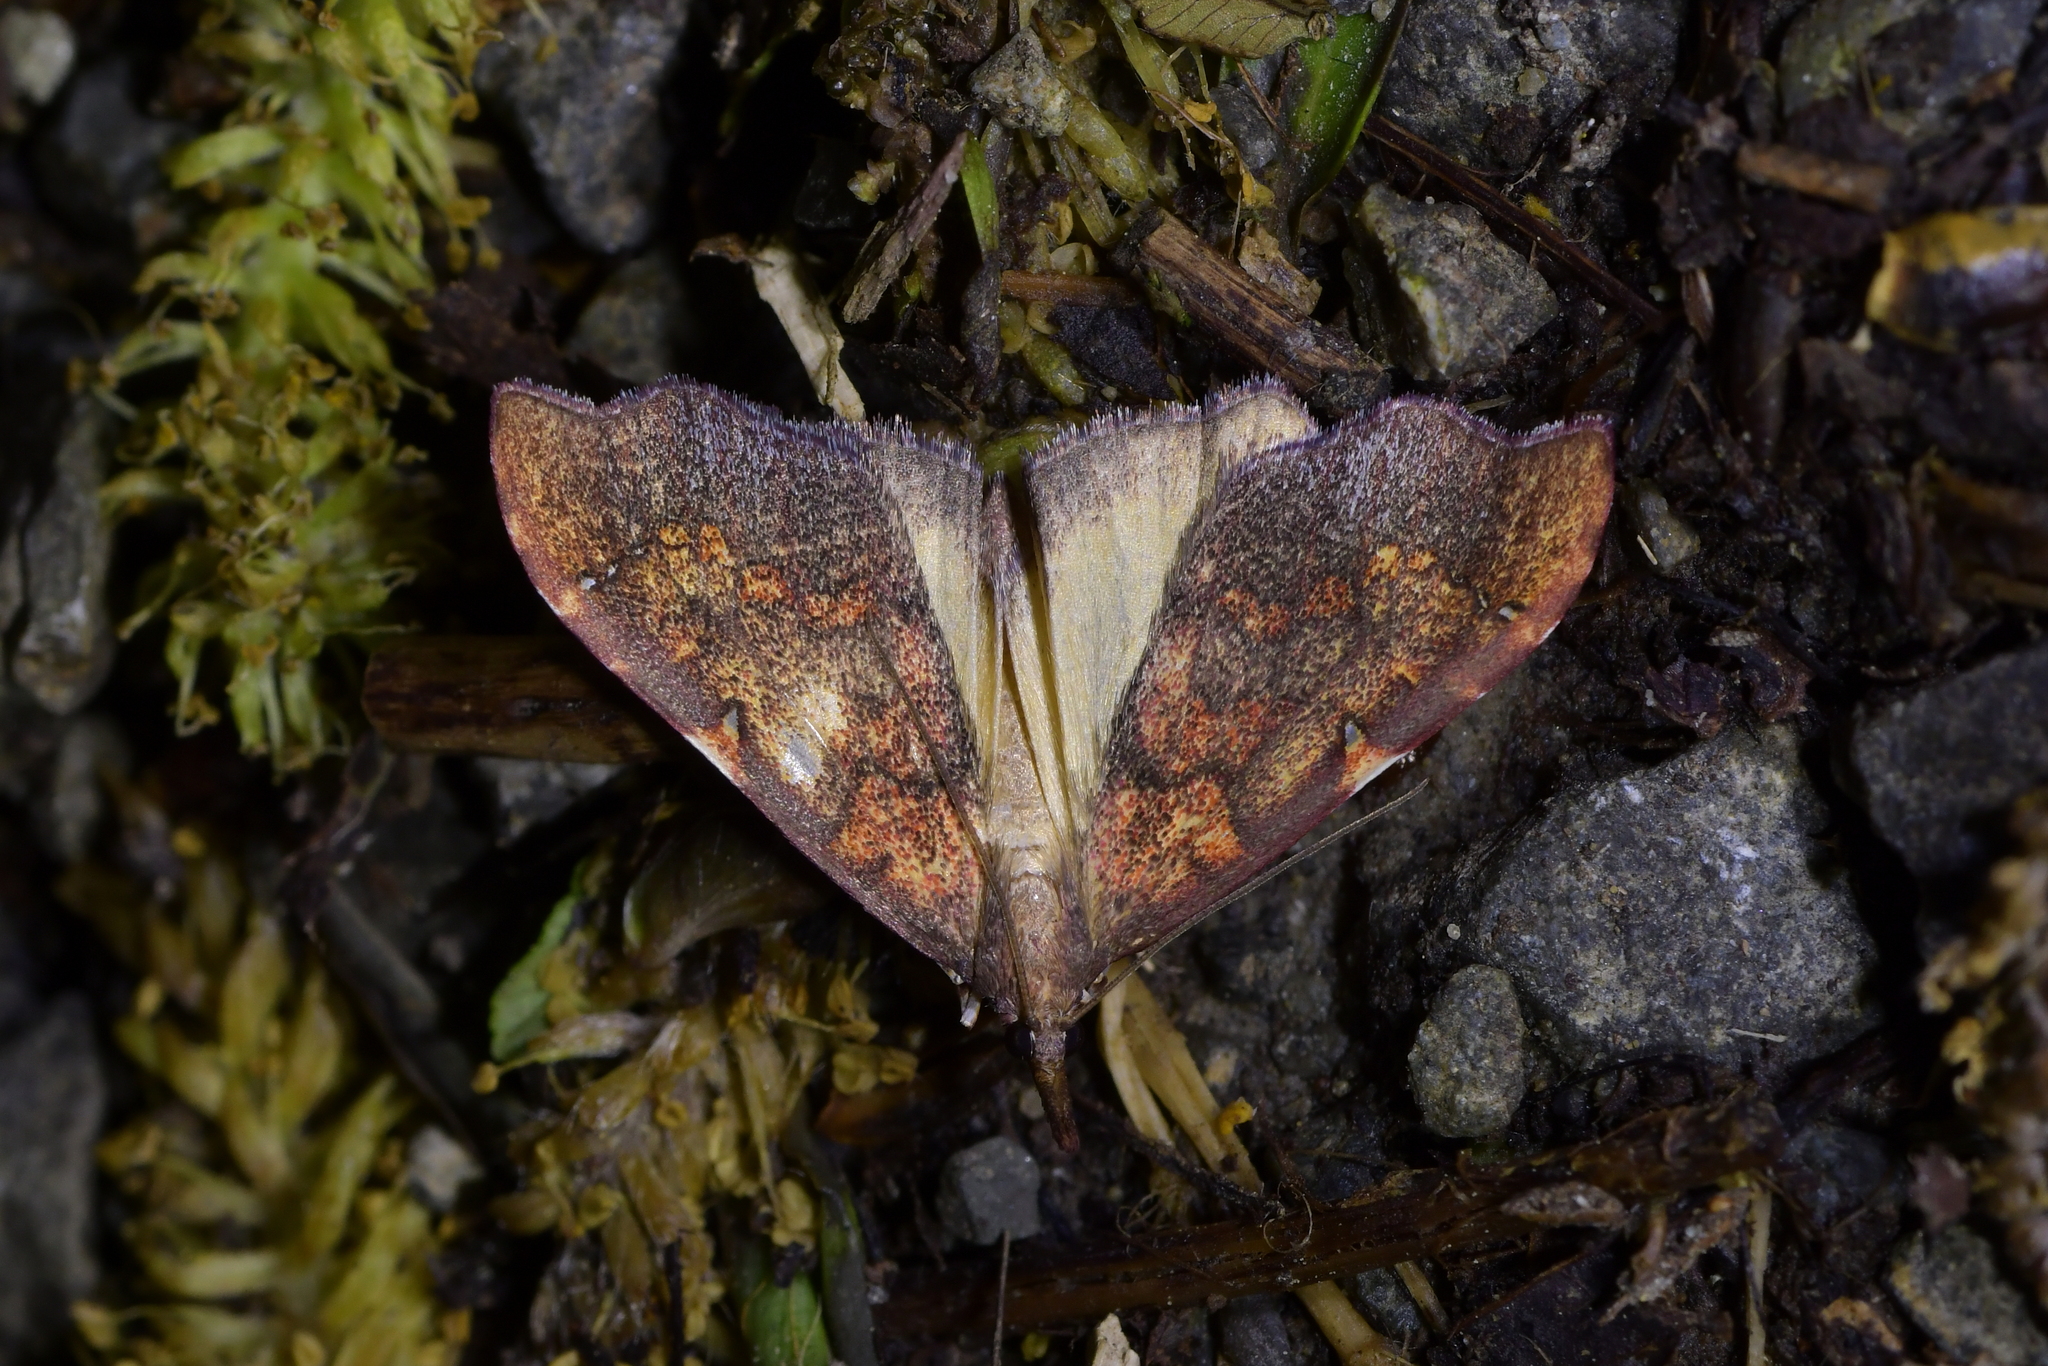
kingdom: Animalia
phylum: Arthropoda
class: Insecta
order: Lepidoptera
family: Crambidae
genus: Deana
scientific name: Deana hybreasalis
